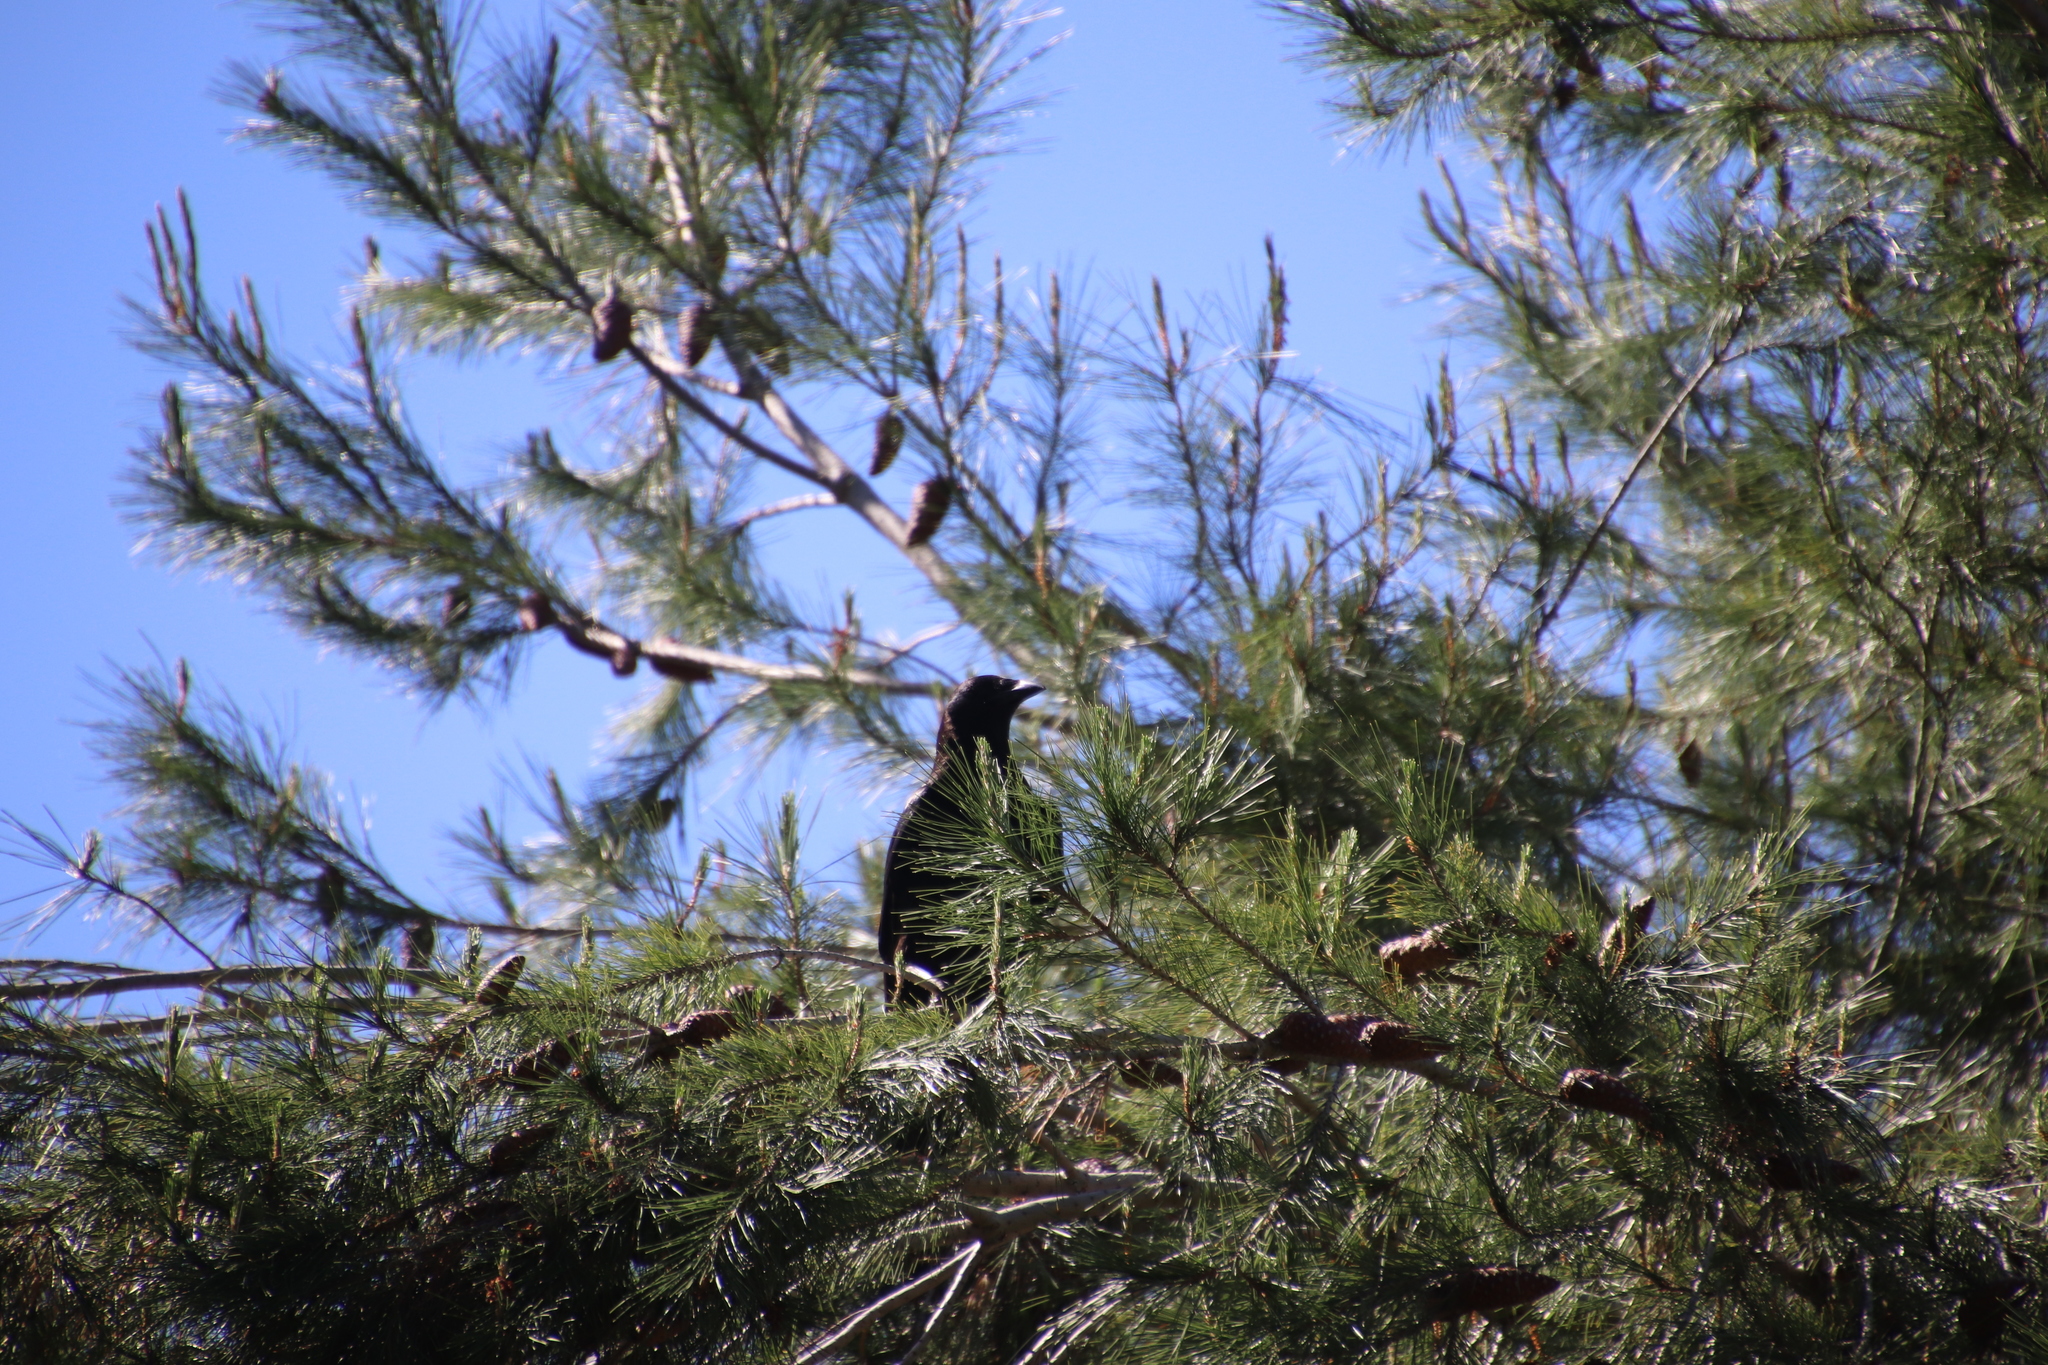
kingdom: Animalia
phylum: Chordata
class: Aves
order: Passeriformes
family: Corvidae
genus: Corvus
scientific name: Corvus brachyrhynchos
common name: American crow
